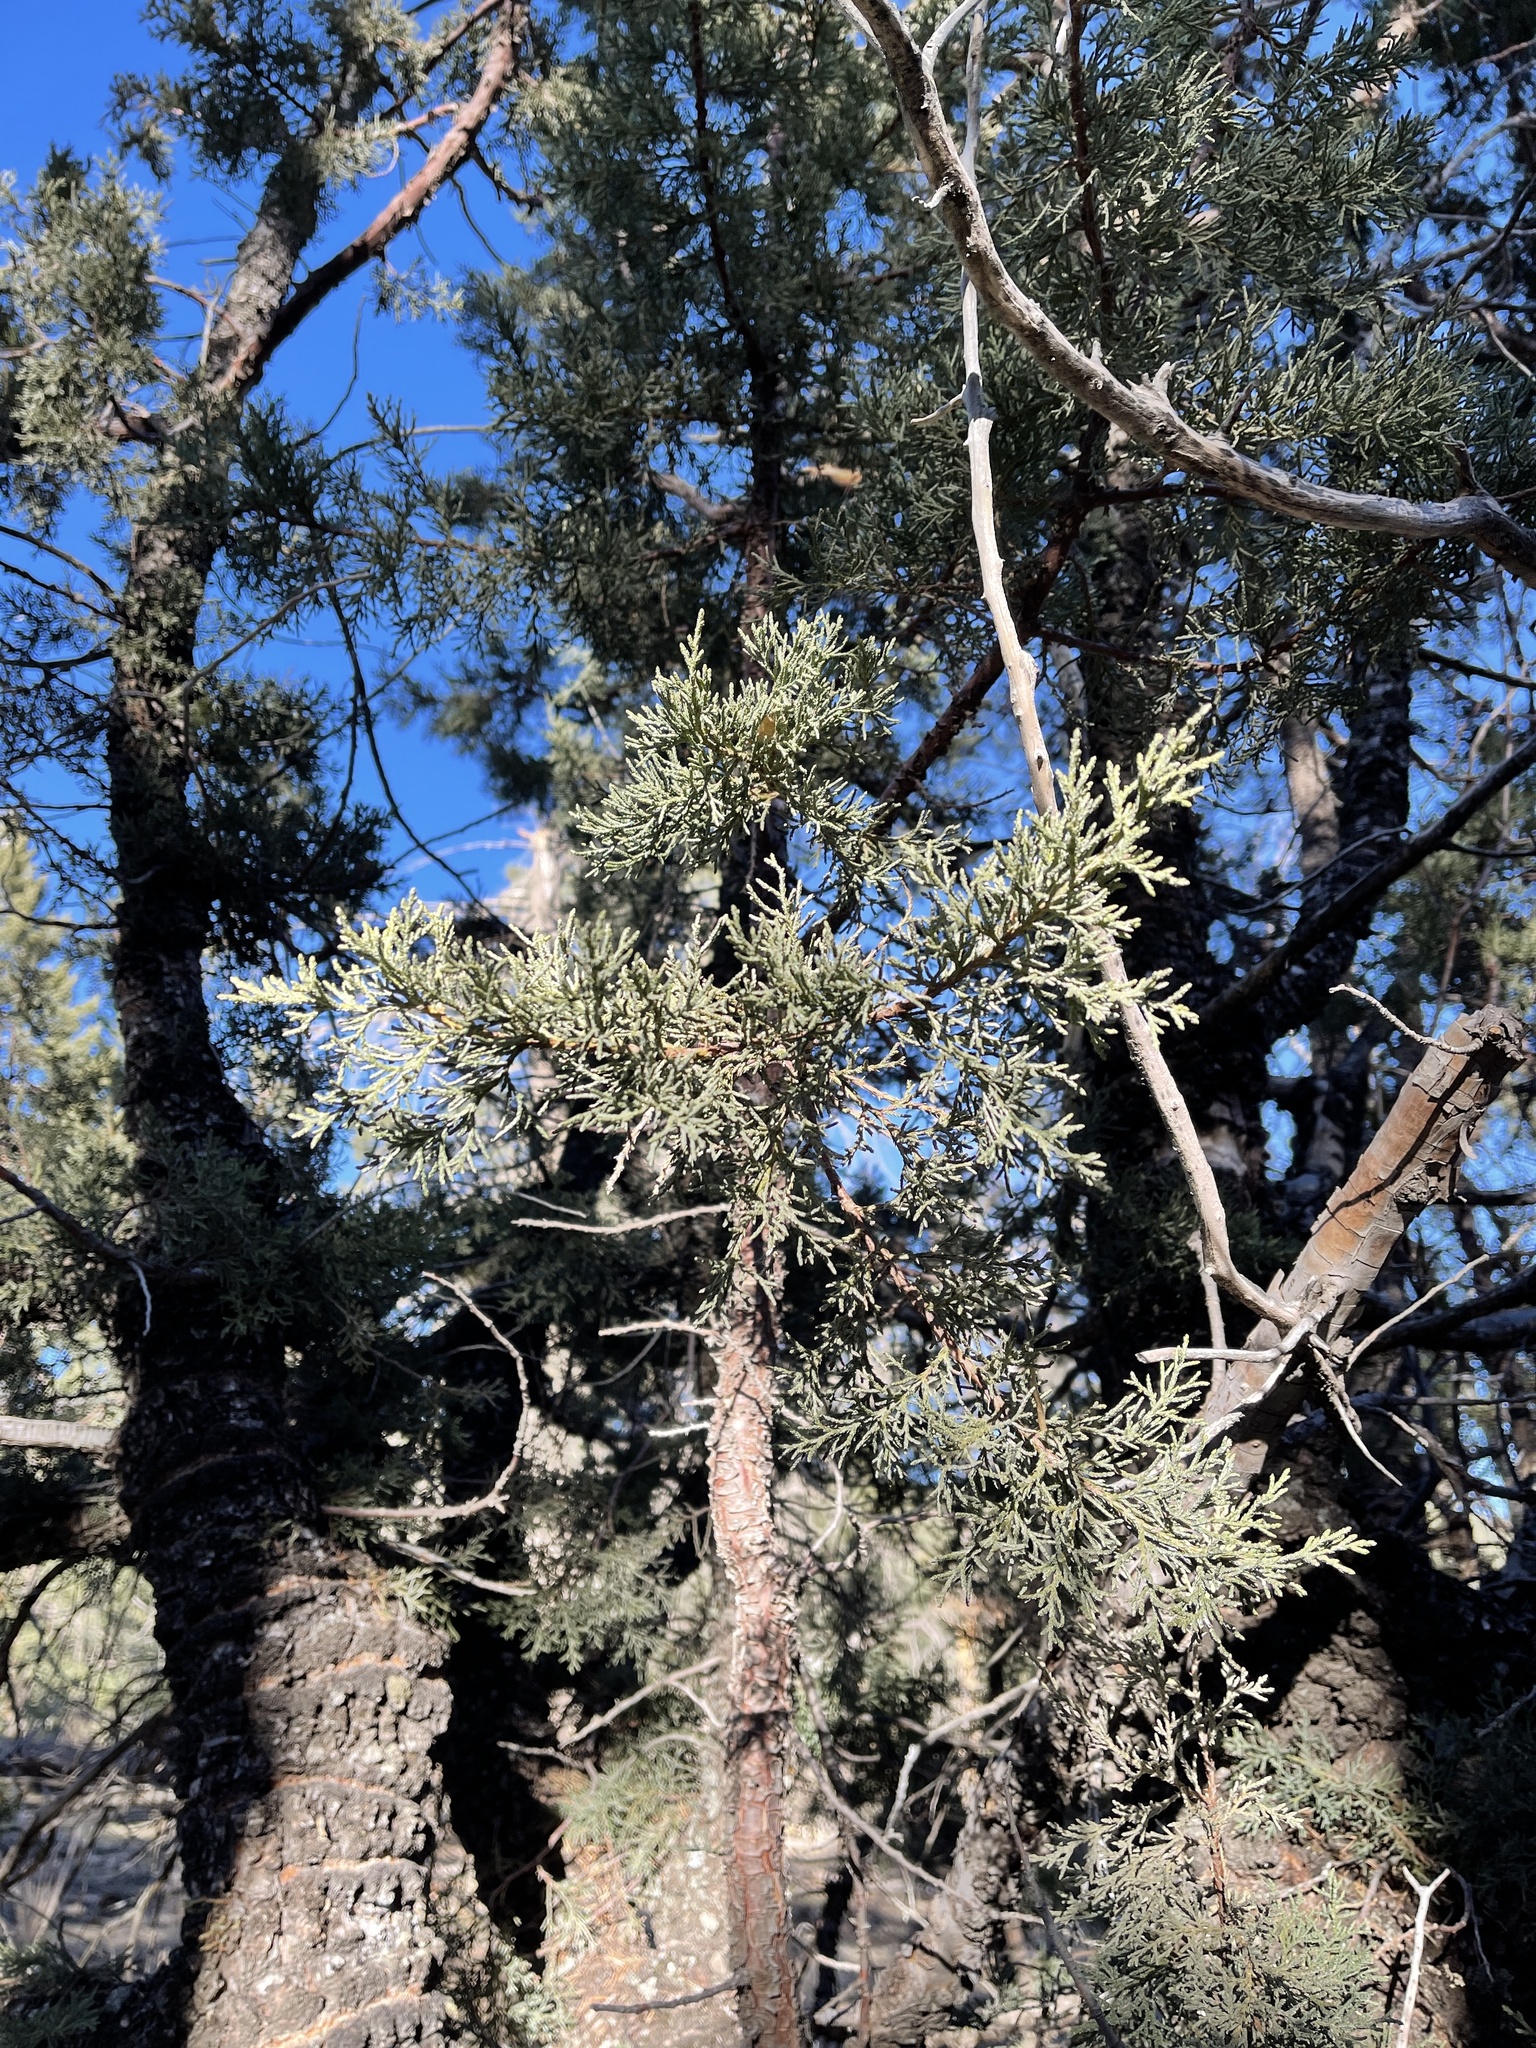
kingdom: Plantae
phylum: Tracheophyta
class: Pinopsida
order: Pinales
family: Cupressaceae
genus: Juniperus
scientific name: Juniperus deppeana
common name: Alligator juniper
